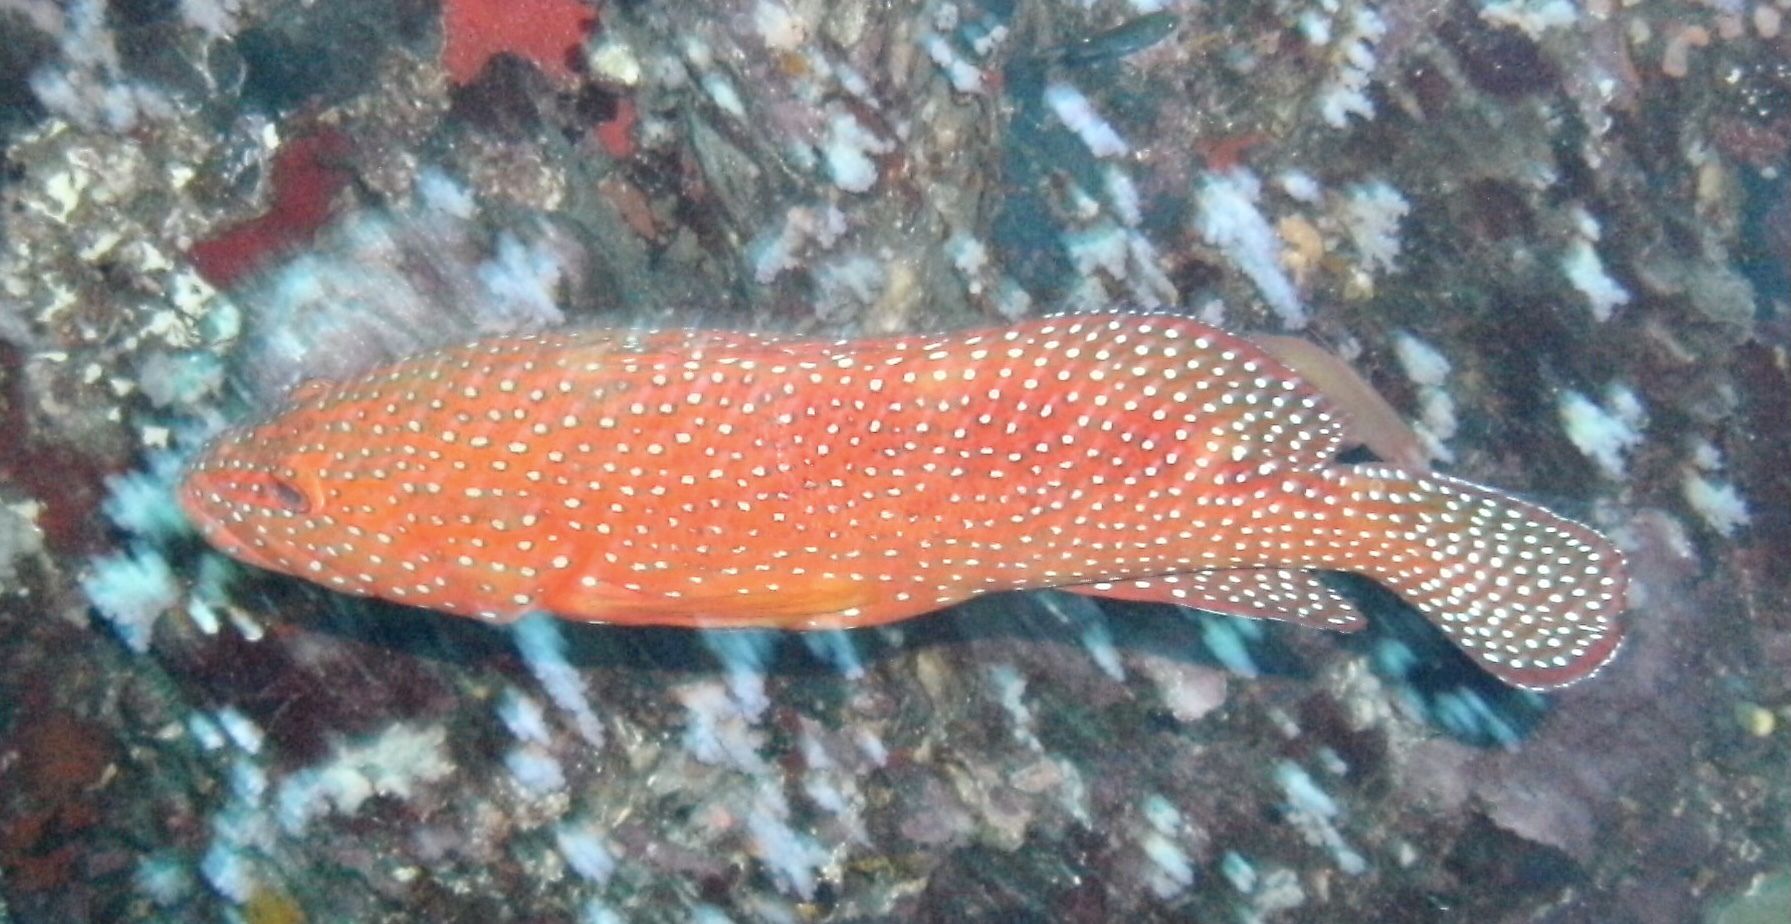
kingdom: Animalia
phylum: Chordata
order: Perciformes
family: Serranidae
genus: Cephalopholis
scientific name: Cephalopholis miniata
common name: Coral hind
